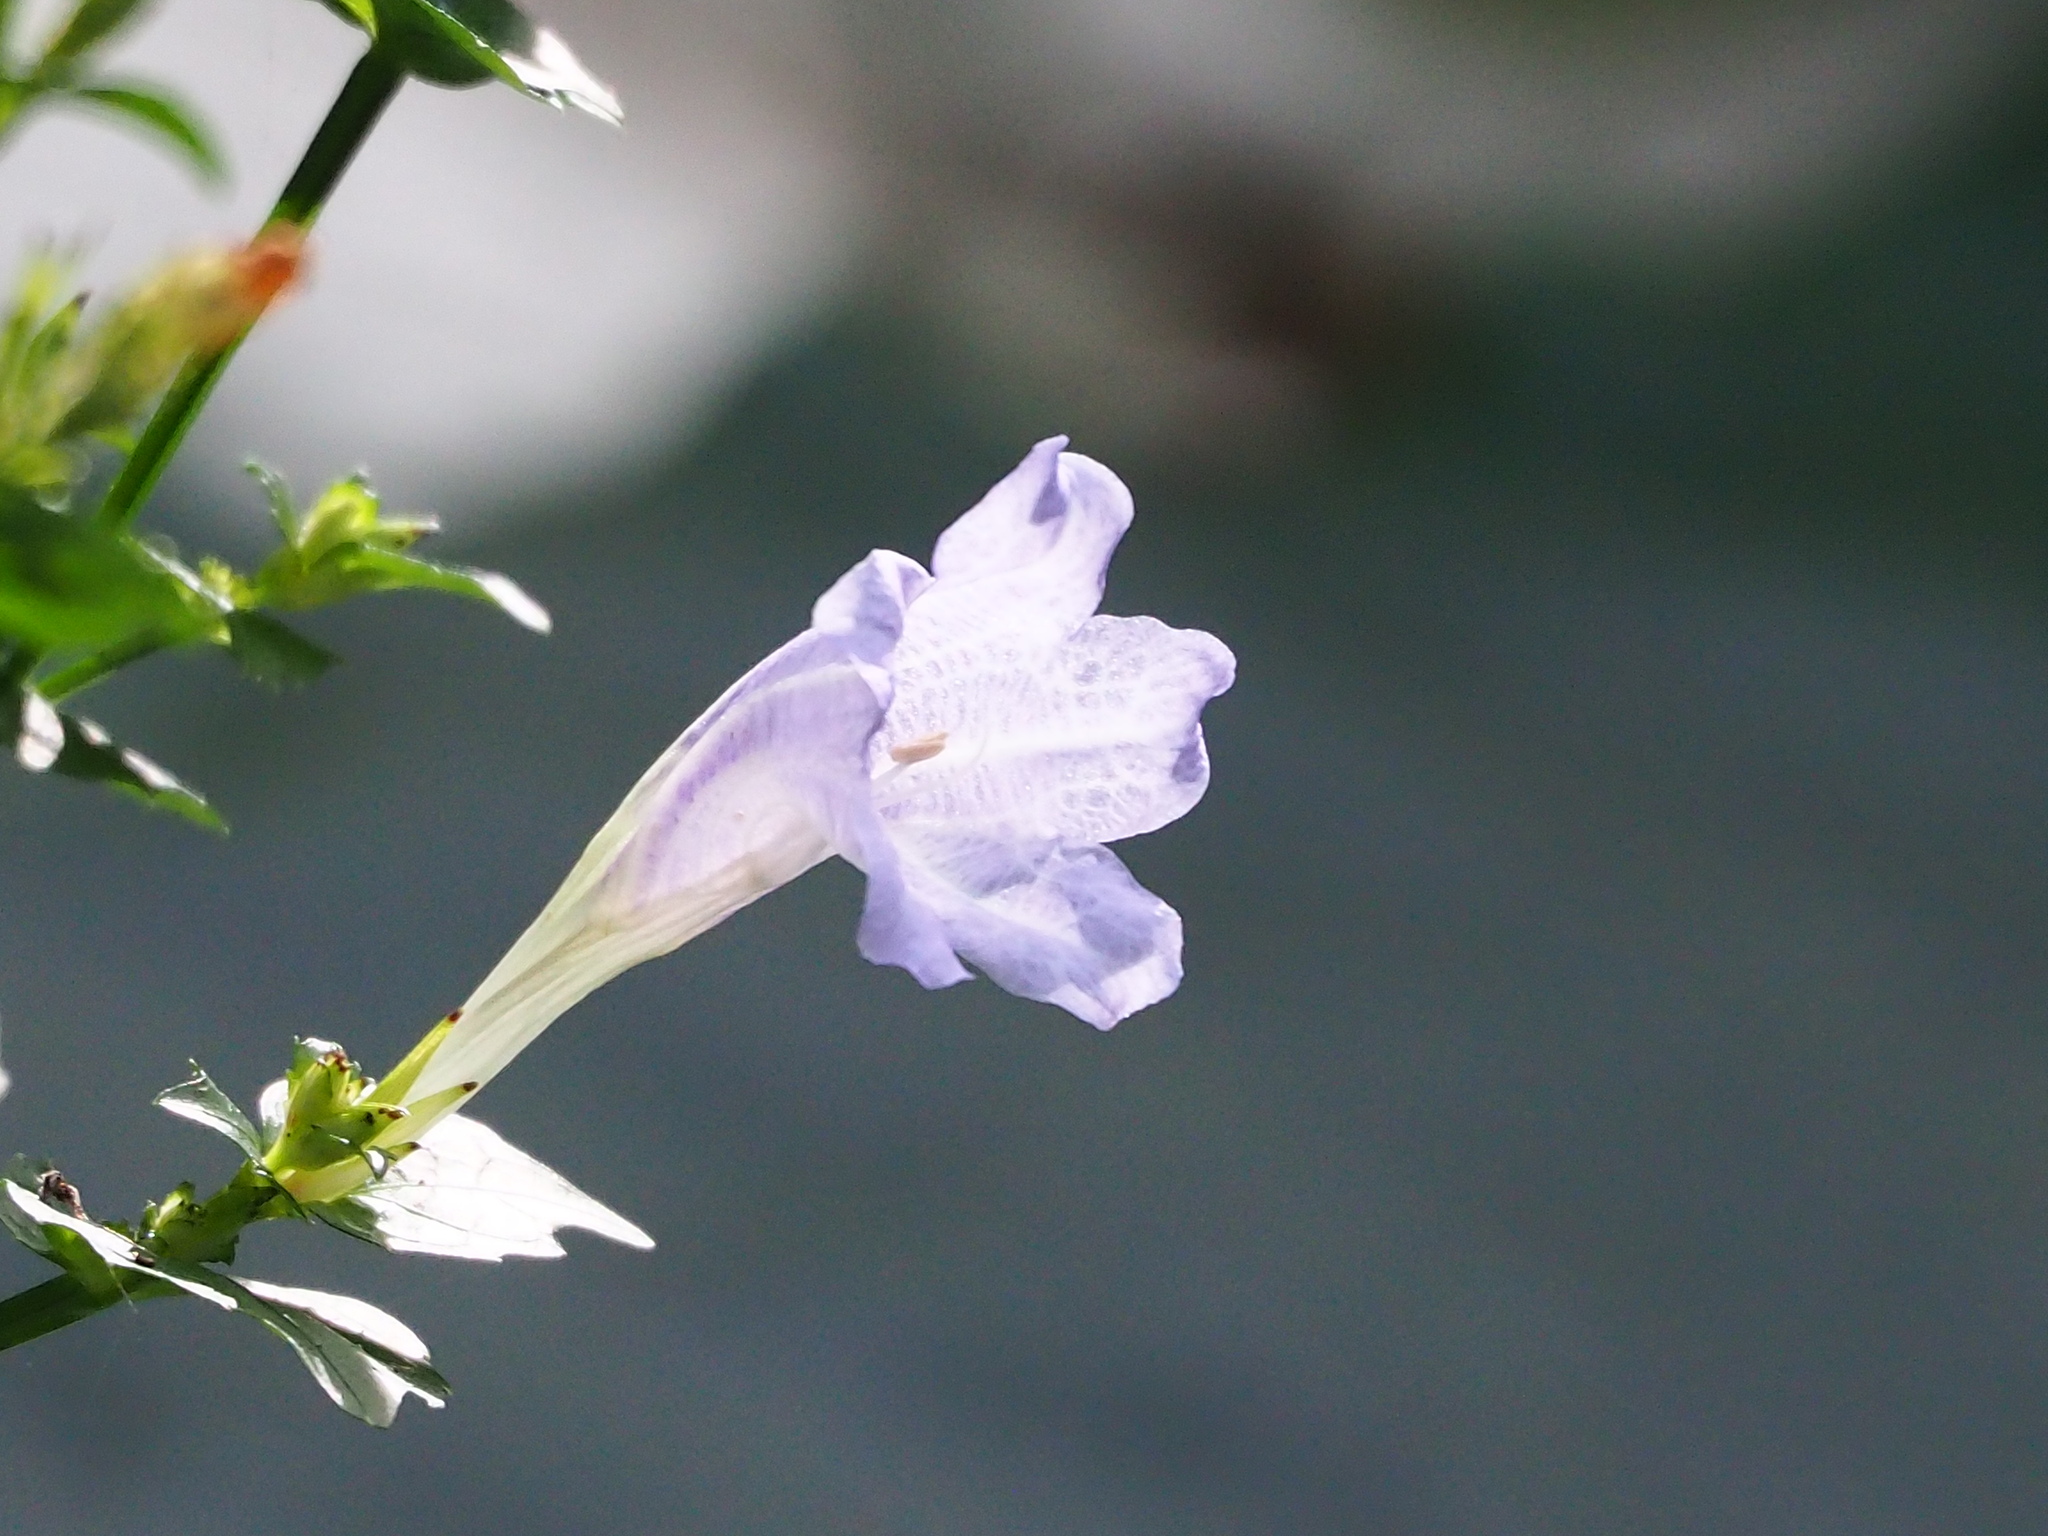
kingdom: Plantae
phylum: Tracheophyta
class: Magnoliopsida
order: Lamiales
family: Acanthaceae
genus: Strobilanthes
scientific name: Strobilanthes flexicaulis
